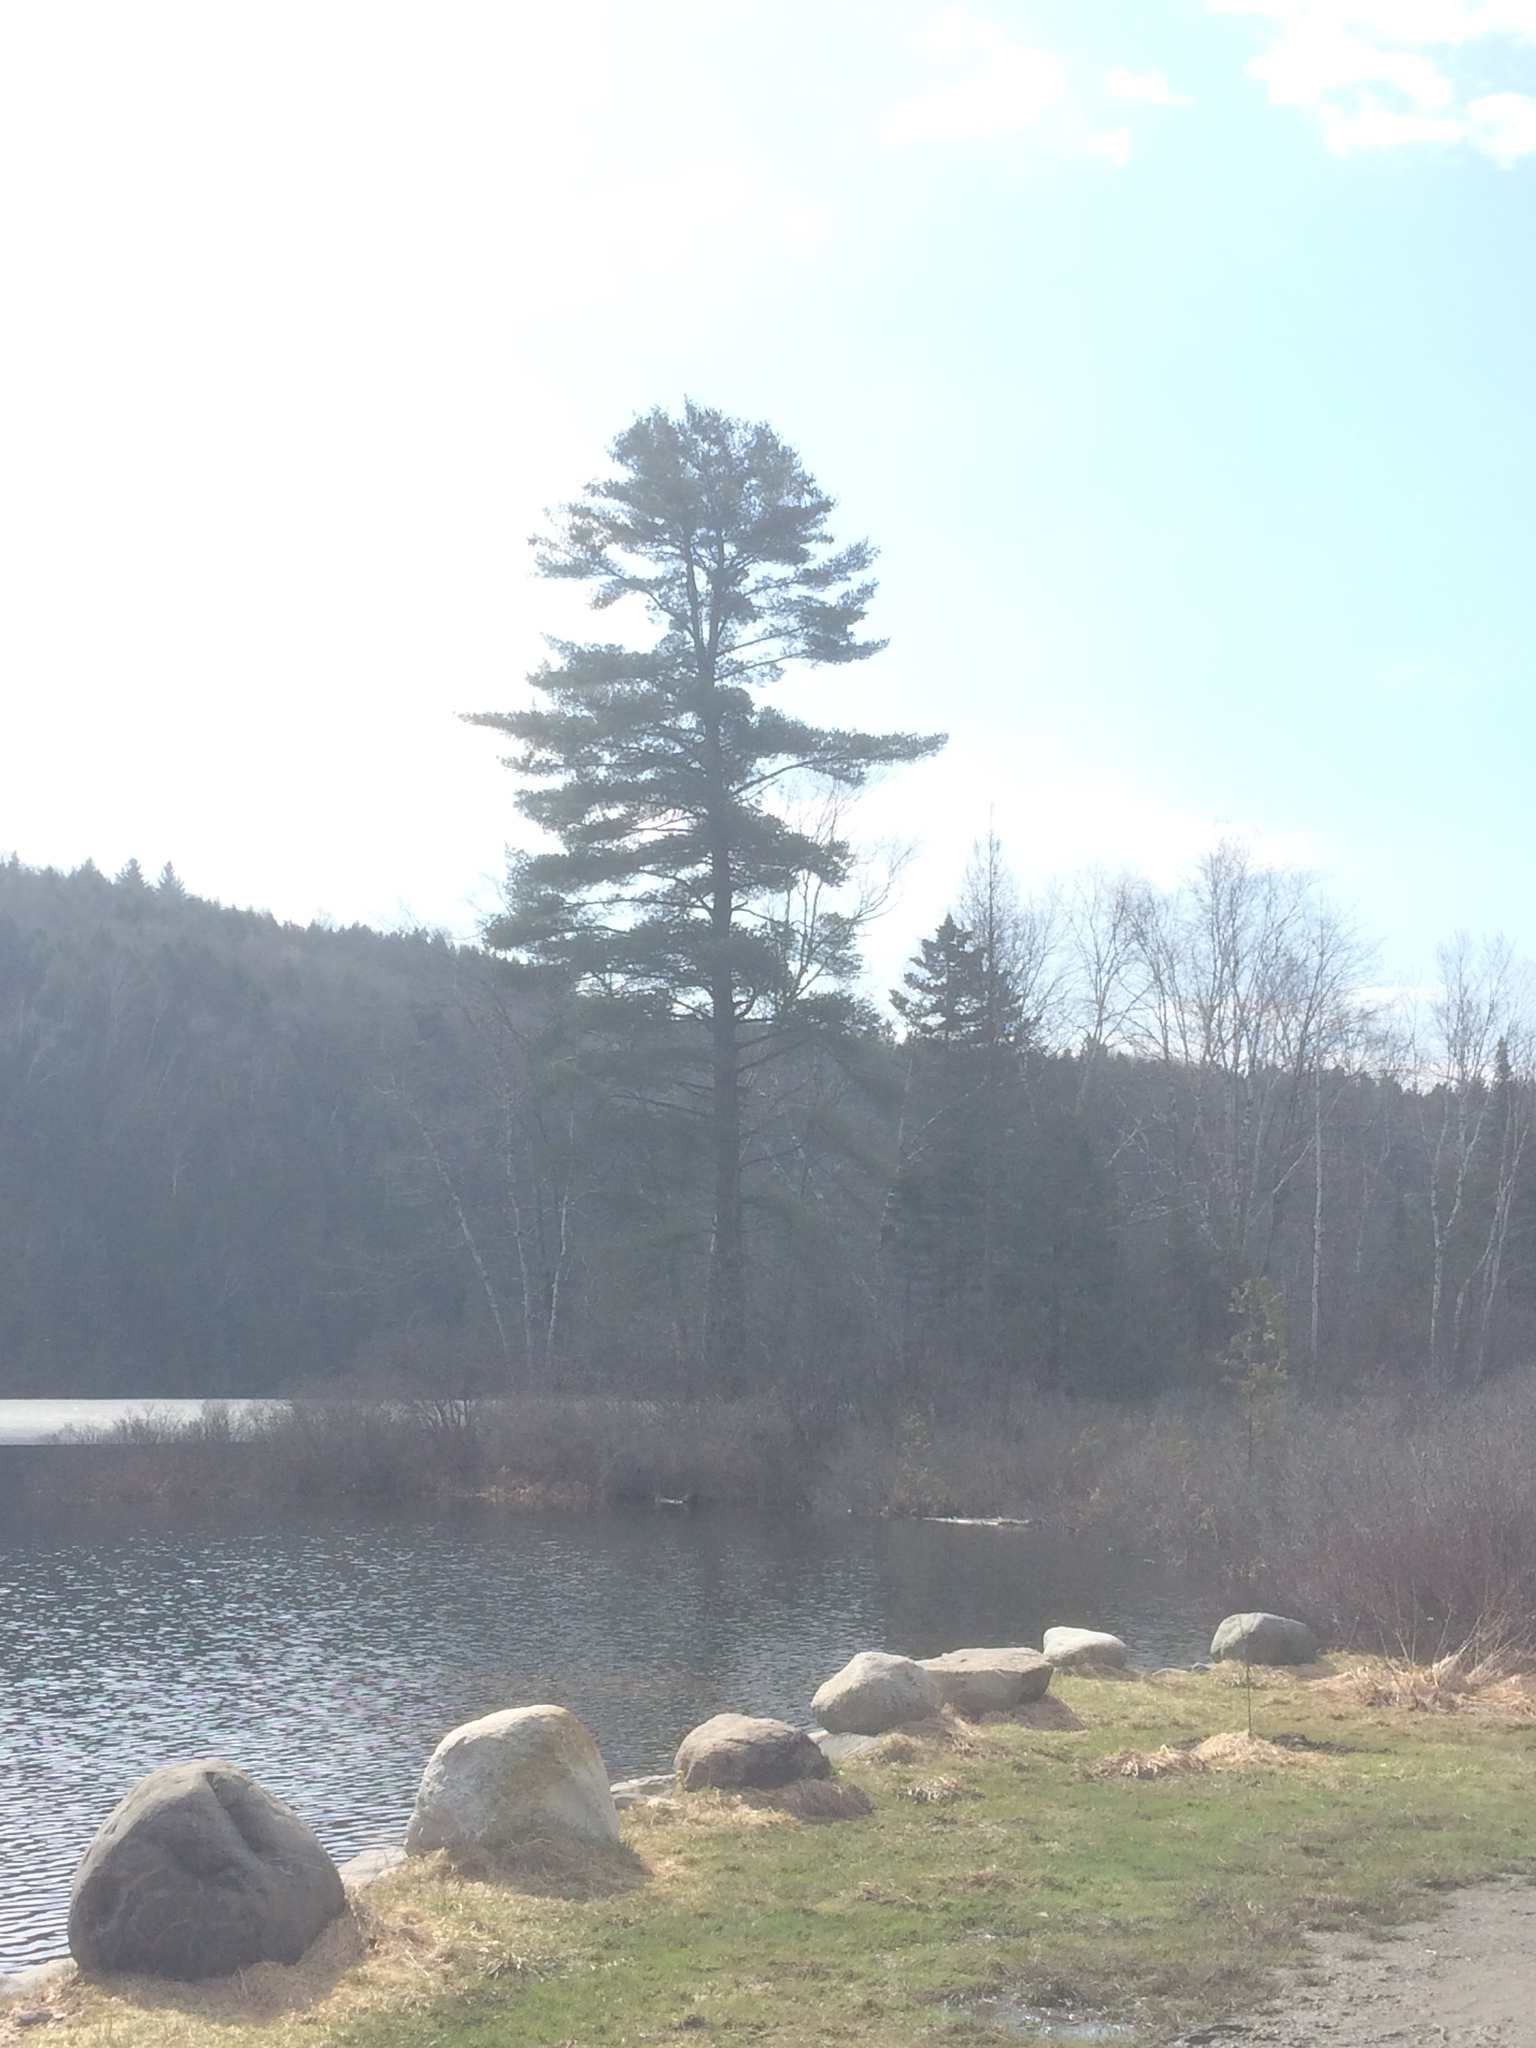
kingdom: Plantae
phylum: Tracheophyta
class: Pinopsida
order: Pinales
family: Pinaceae
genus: Pinus
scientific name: Pinus strobus
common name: Weymouth pine
